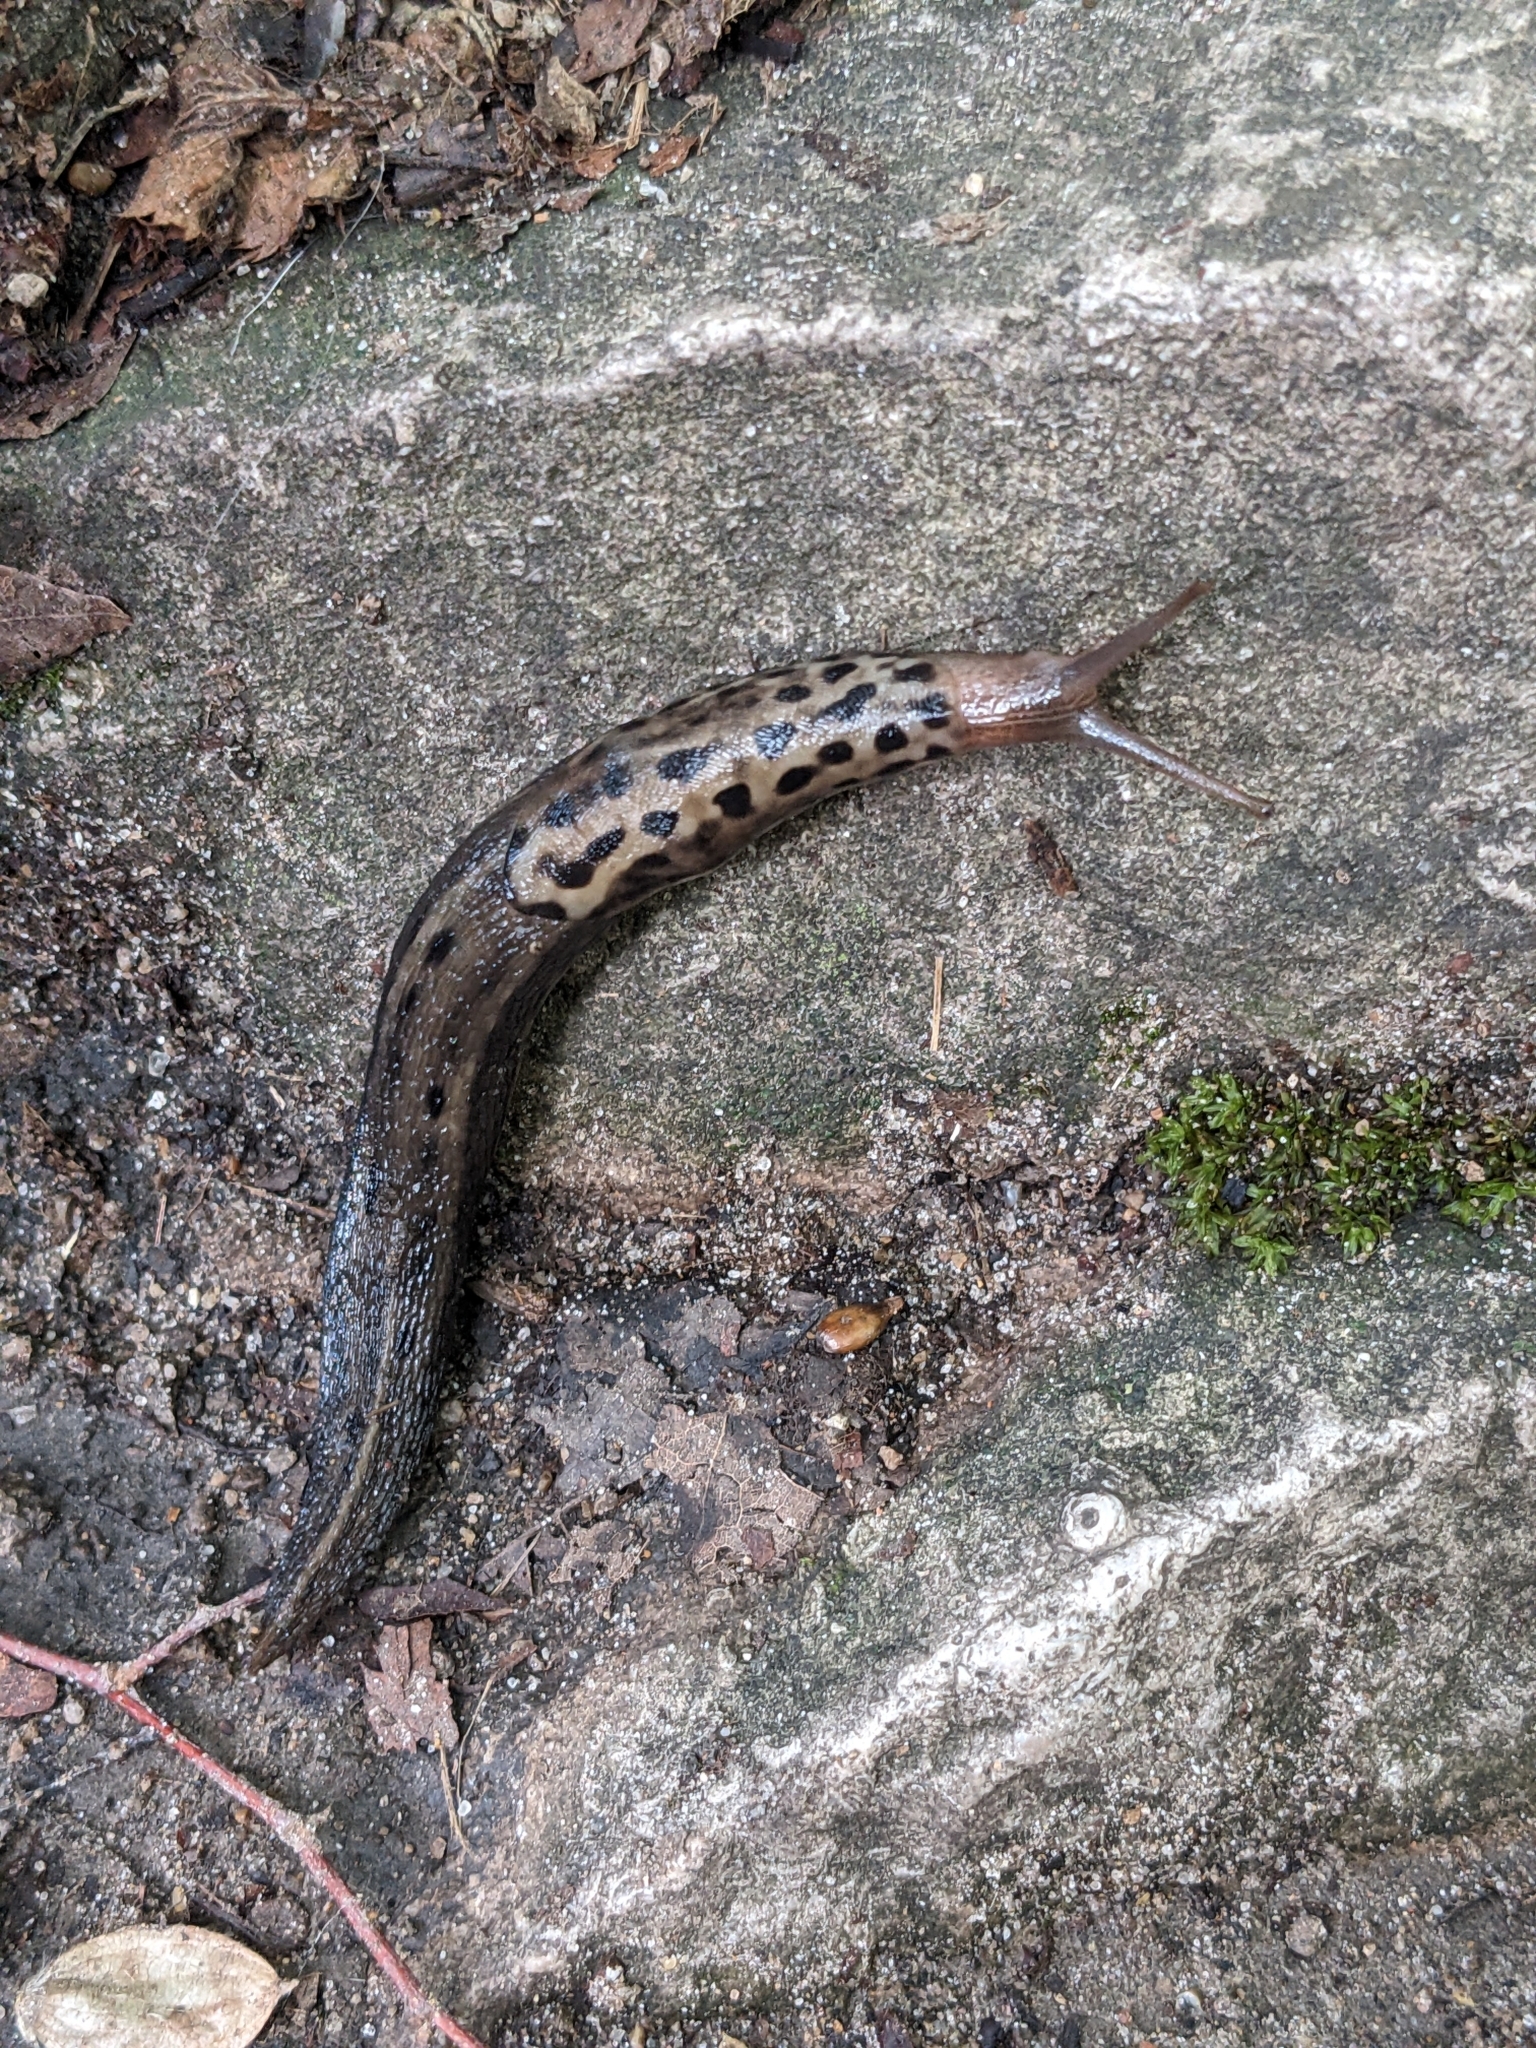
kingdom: Animalia
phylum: Mollusca
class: Gastropoda
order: Stylommatophora
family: Limacidae
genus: Limax
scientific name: Limax maximus
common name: Great grey slug
